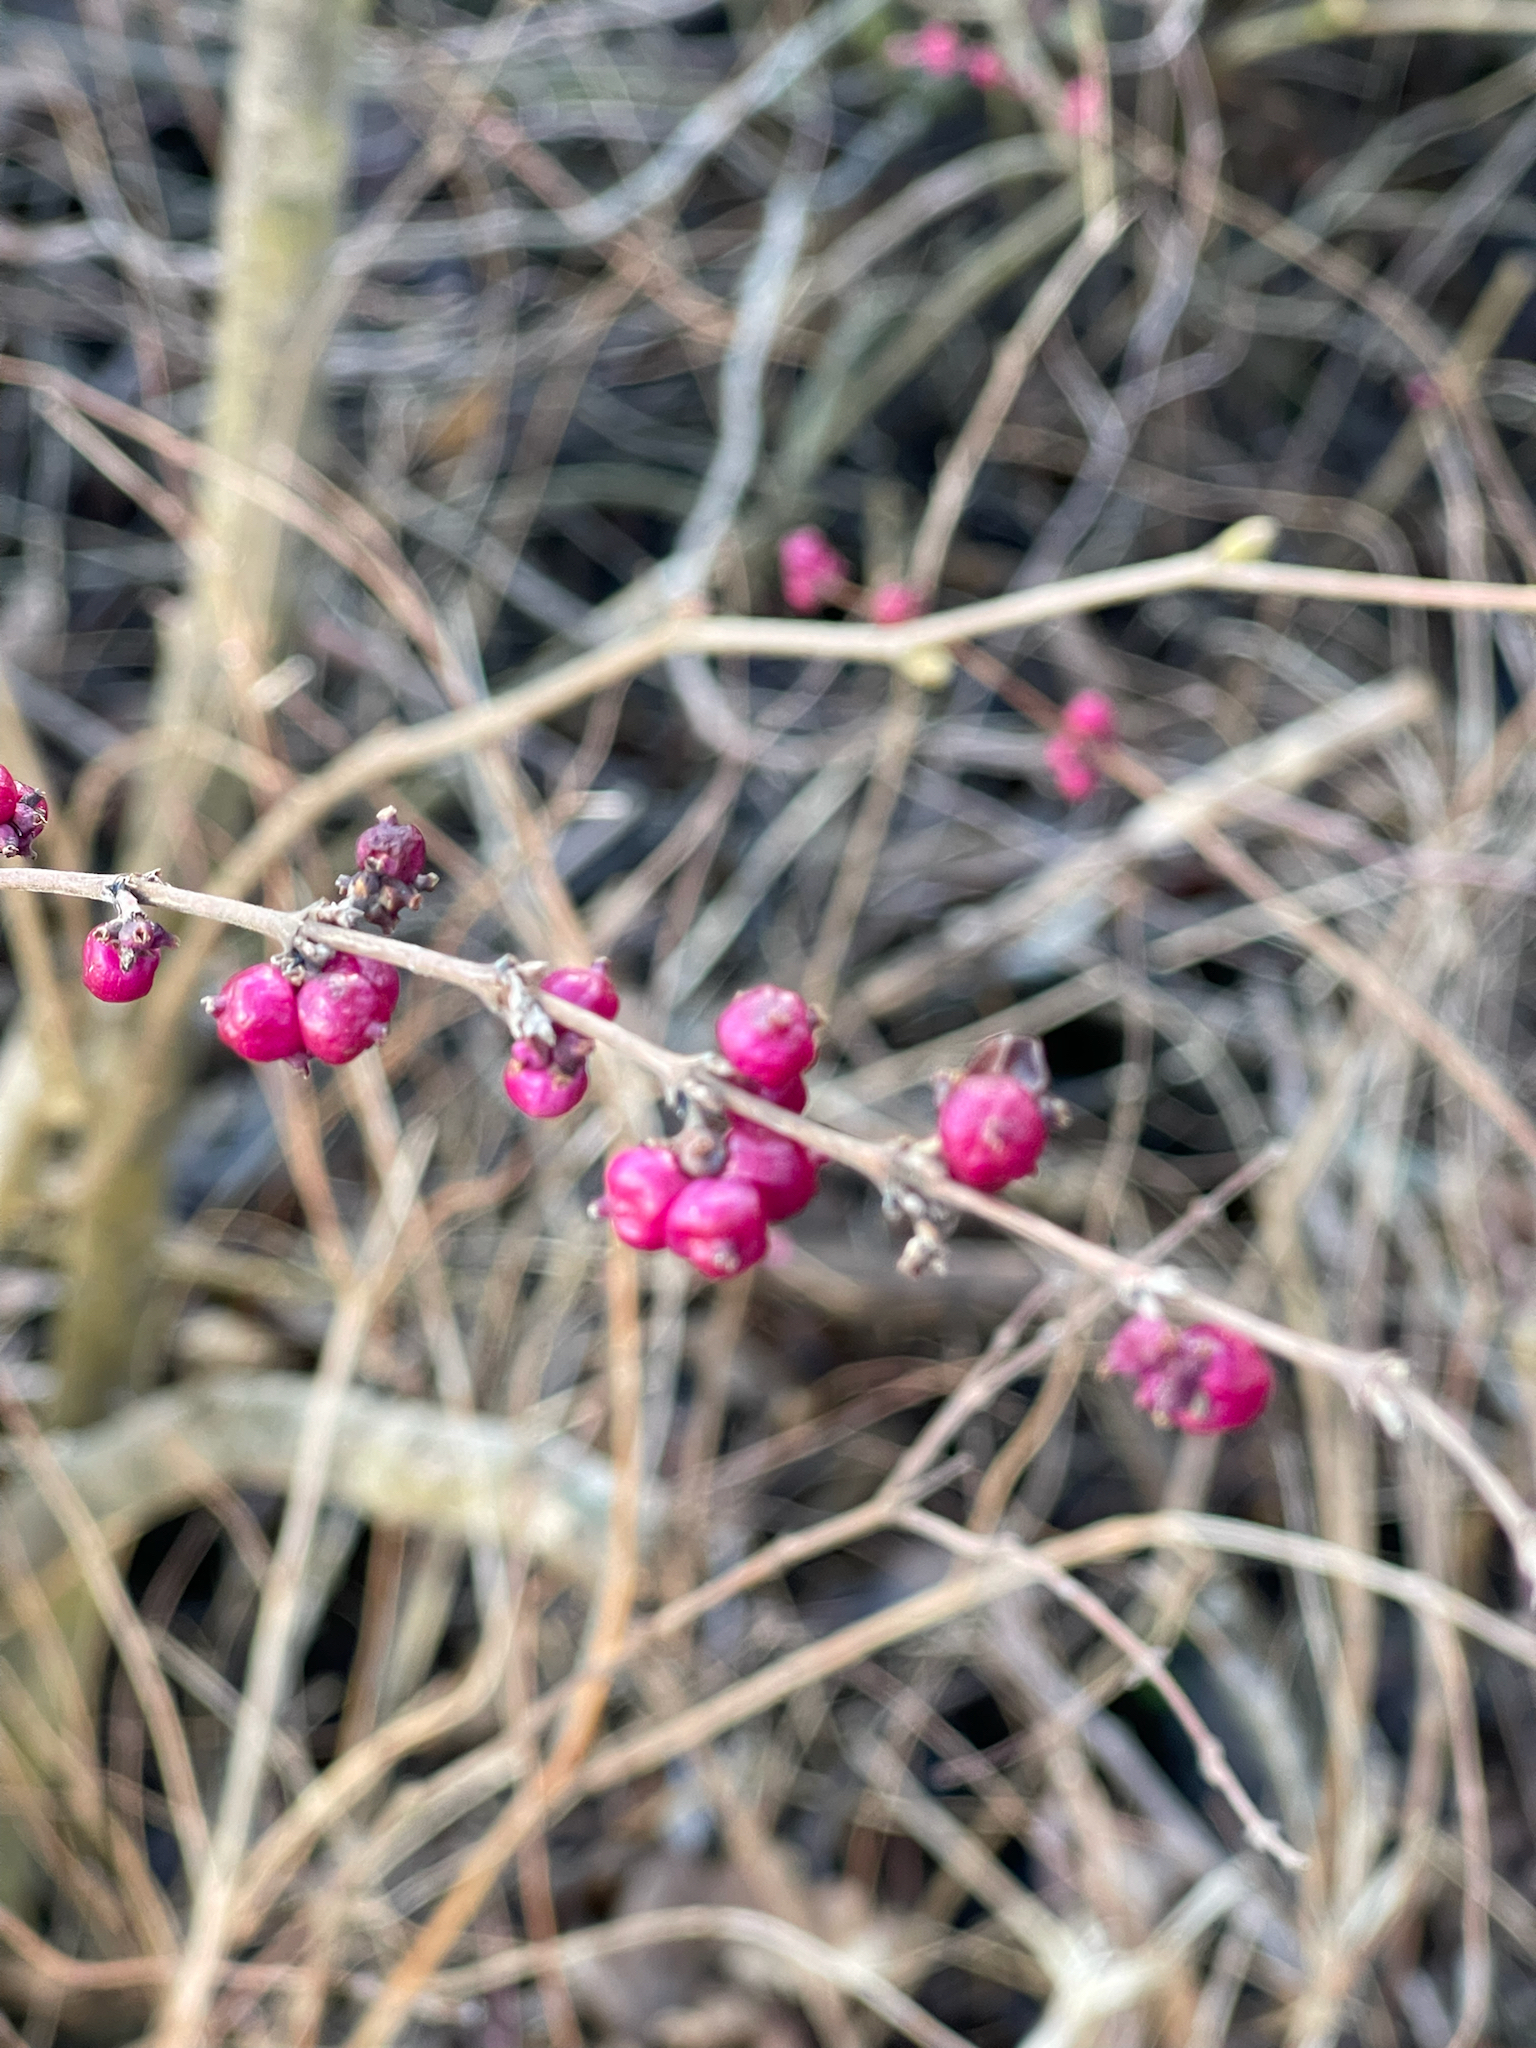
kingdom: Plantae
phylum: Tracheophyta
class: Magnoliopsida
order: Dipsacales
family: Caprifoliaceae
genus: Symphoricarpos
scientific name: Symphoricarpos orbiculatus
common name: Coralberry
